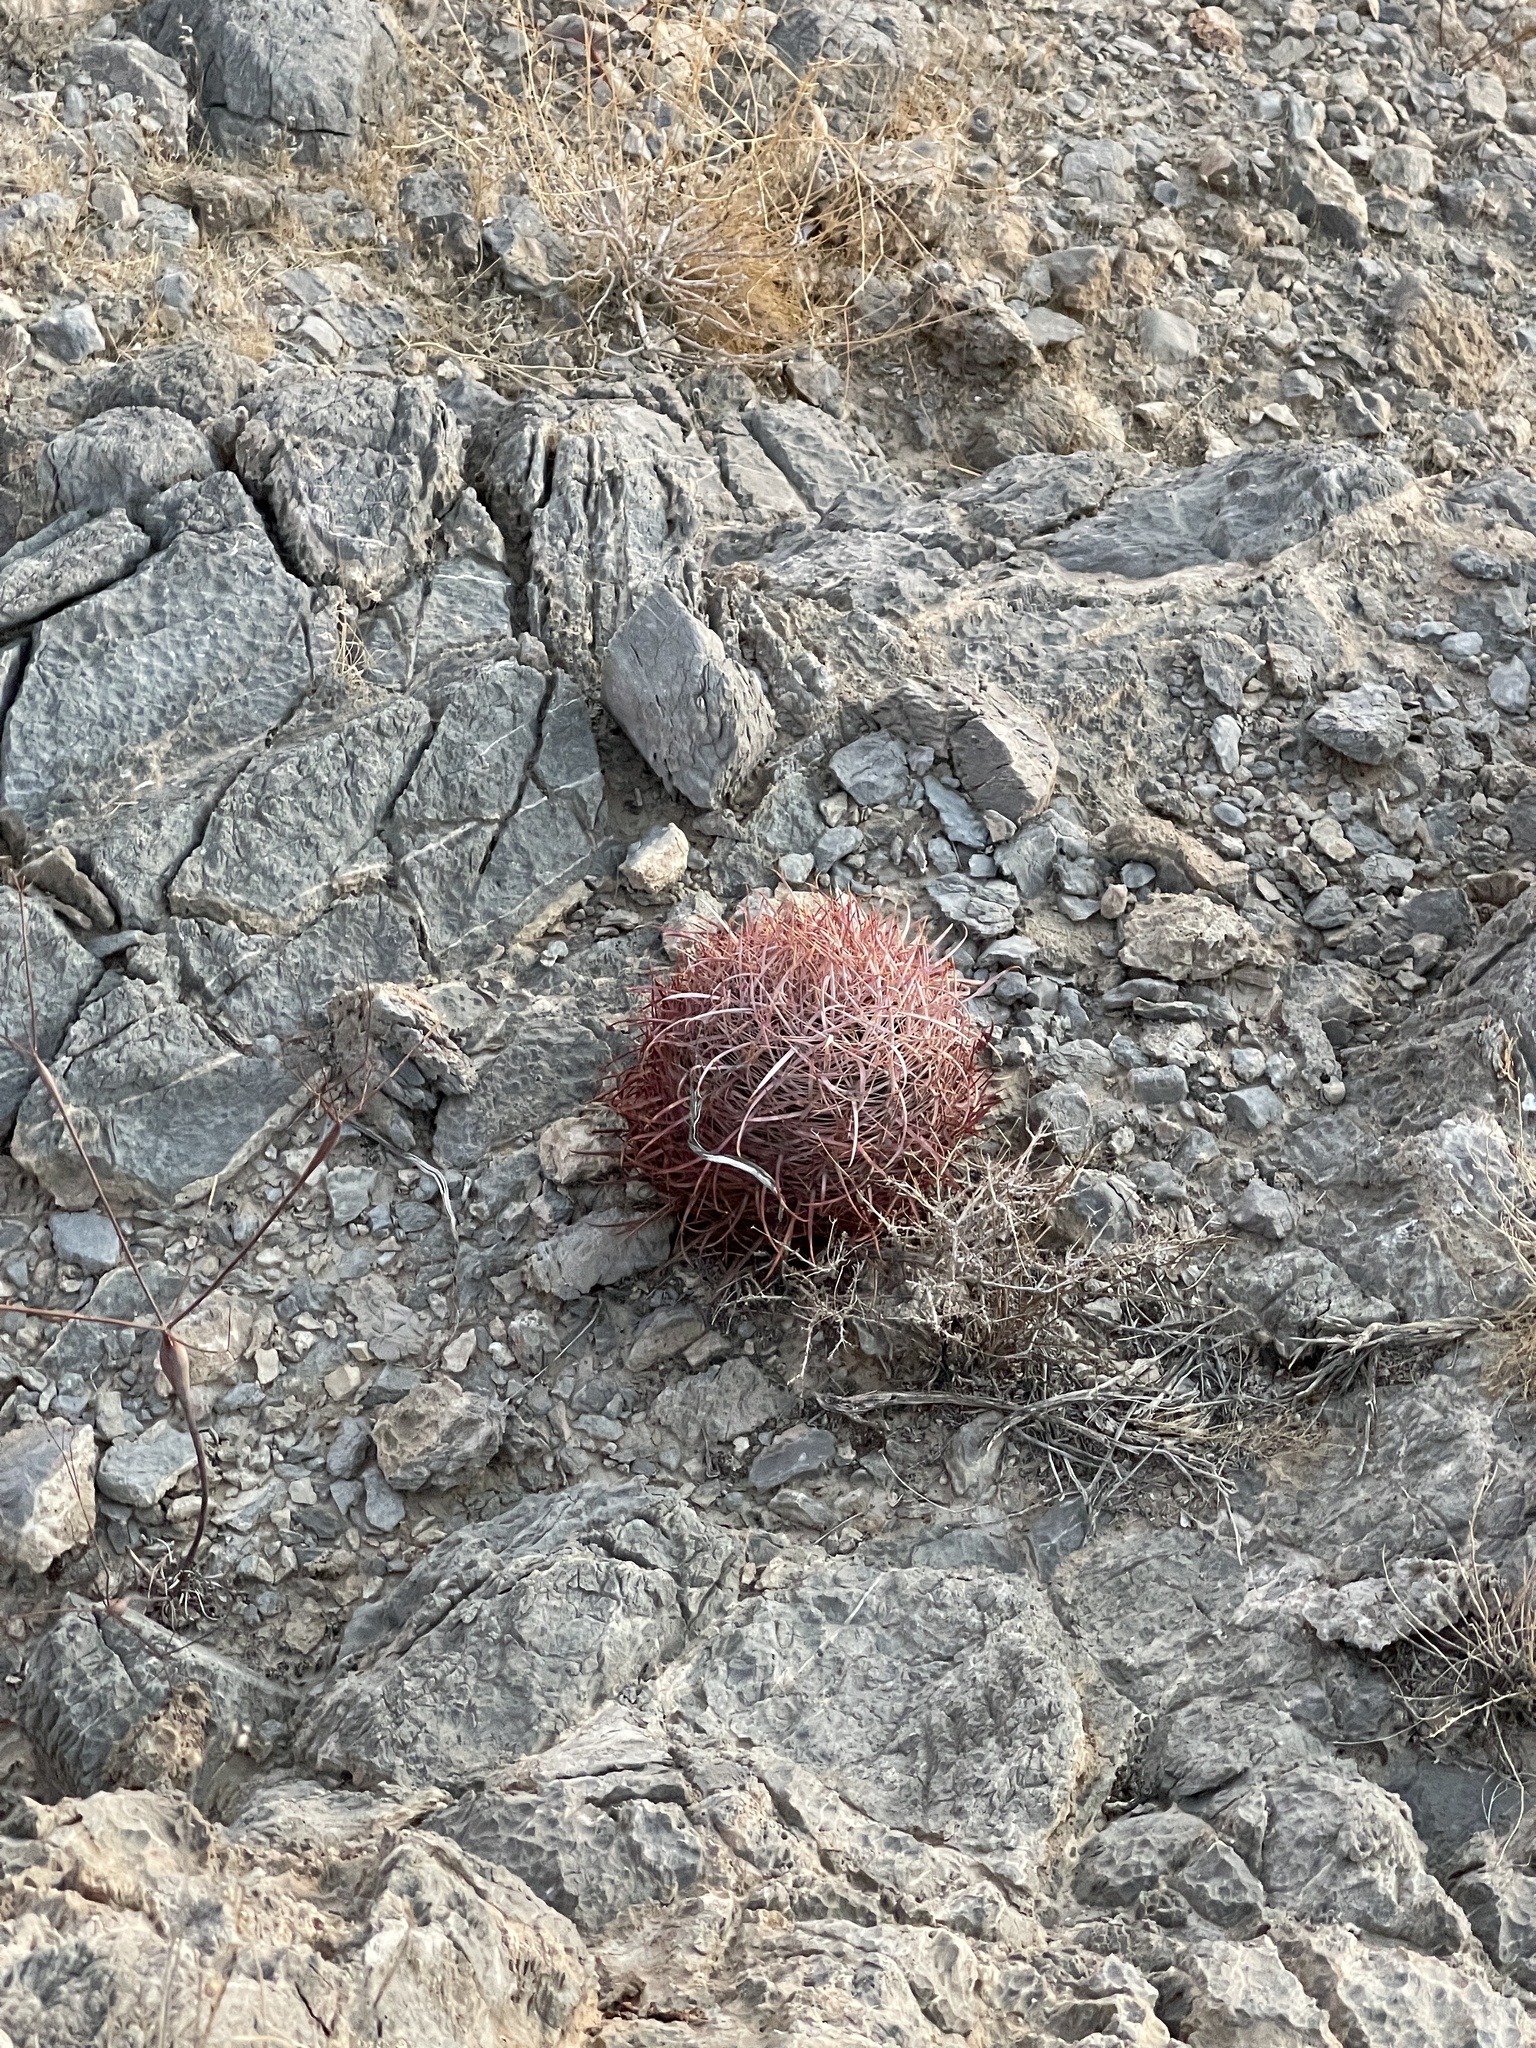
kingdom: Plantae
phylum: Tracheophyta
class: Magnoliopsida
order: Caryophyllales
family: Cactaceae
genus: Ferocactus
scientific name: Ferocactus cylindraceus
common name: California barrel cactus
